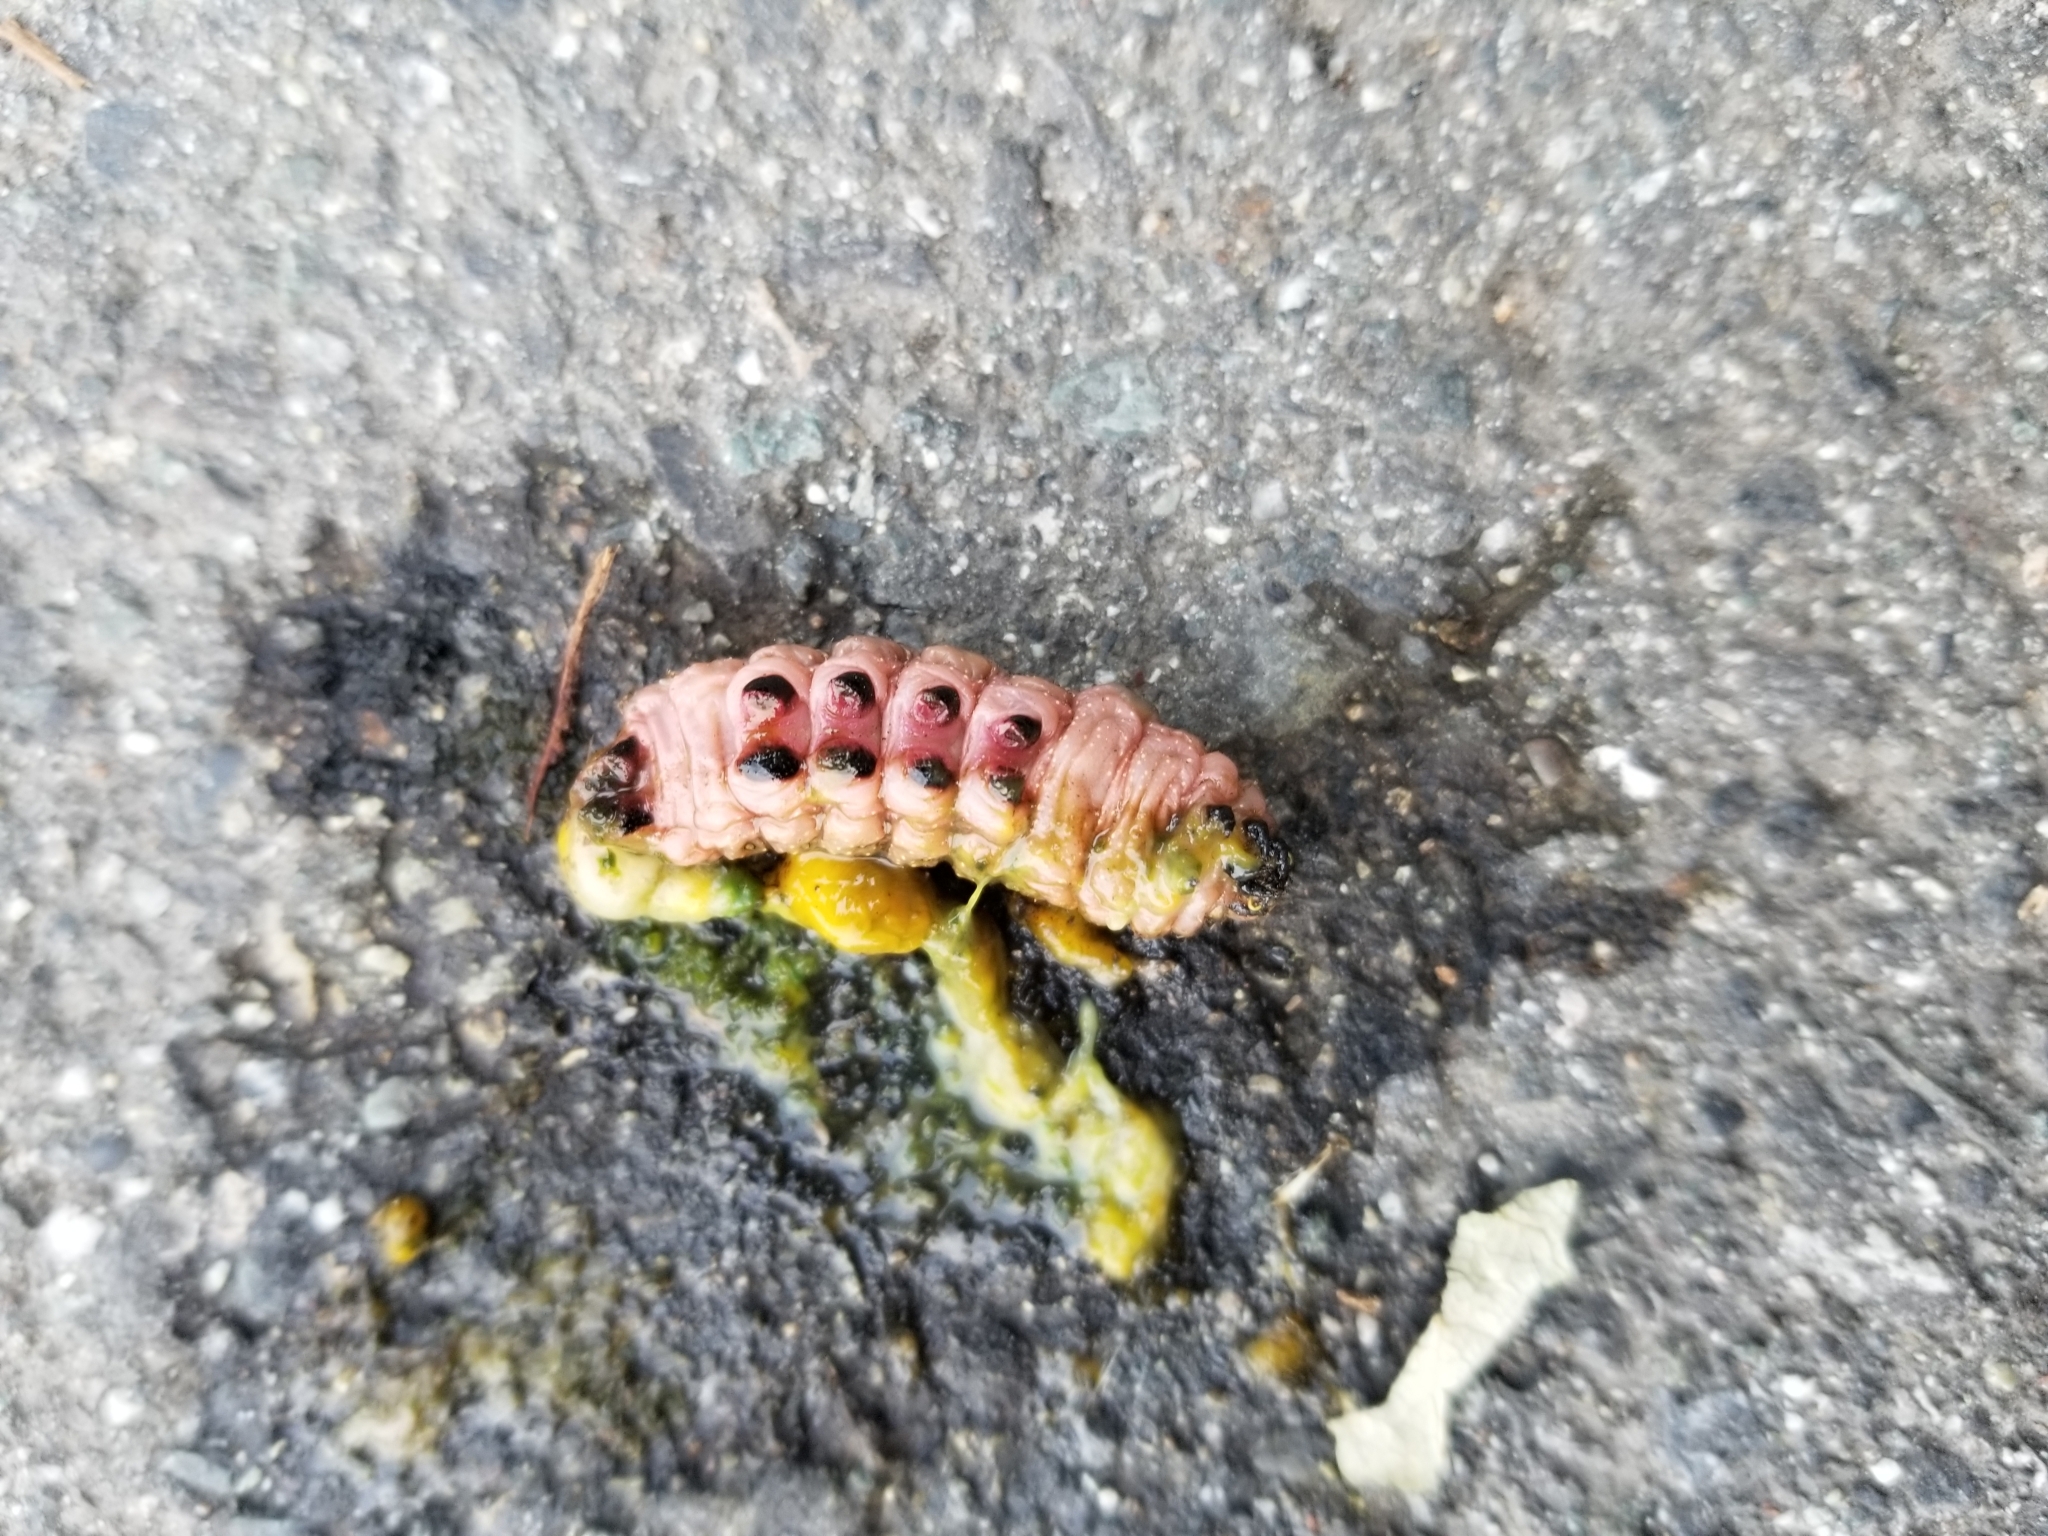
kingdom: Animalia
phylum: Arthropoda
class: Insecta
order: Lepidoptera
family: Sphingidae
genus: Hyles
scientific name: Hyles gallii
